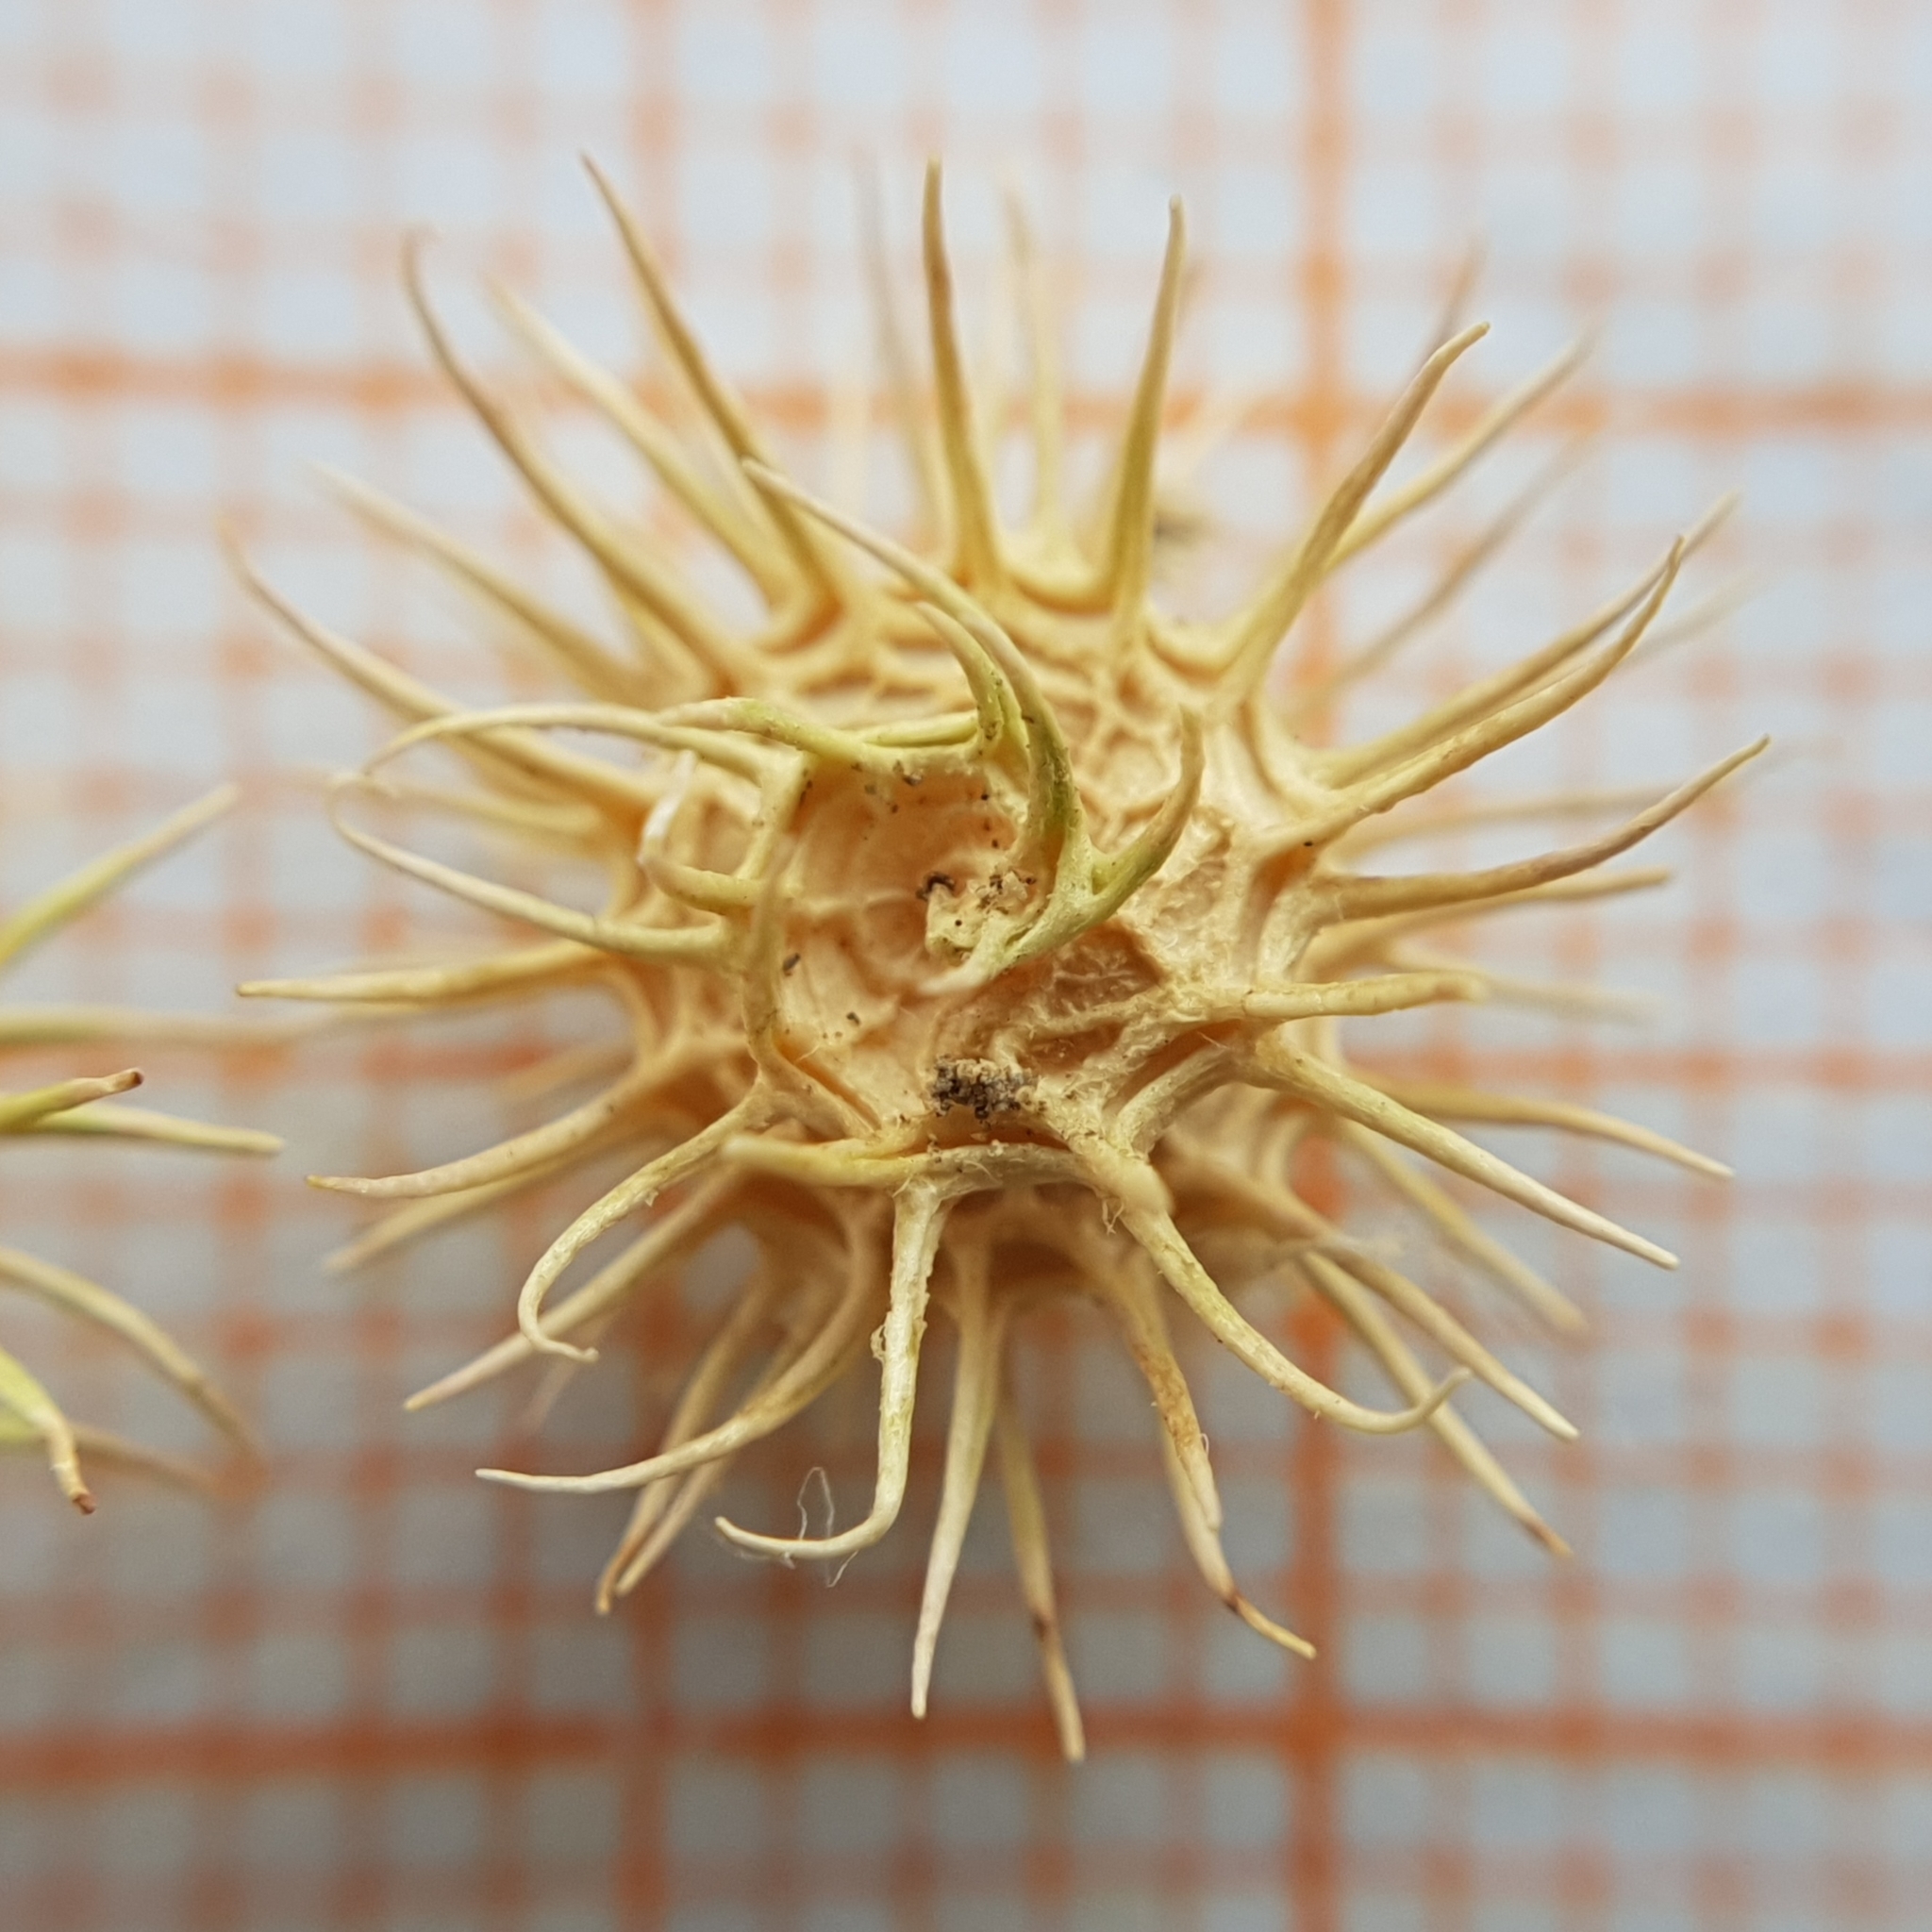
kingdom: Plantae
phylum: Tracheophyta
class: Magnoliopsida
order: Fabales
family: Fabaceae
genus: Medicago
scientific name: Medicago polymorpha
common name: Burclover
